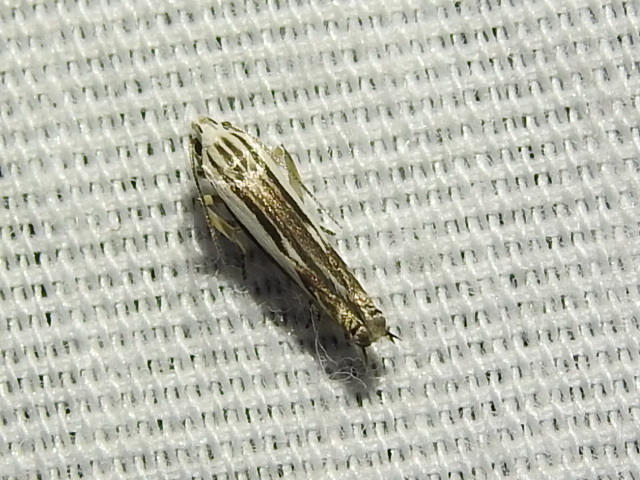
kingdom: Animalia
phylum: Arthropoda
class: Insecta
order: Lepidoptera
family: Gelechiidae
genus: Polyhymno
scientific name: Polyhymno luteostrigella
